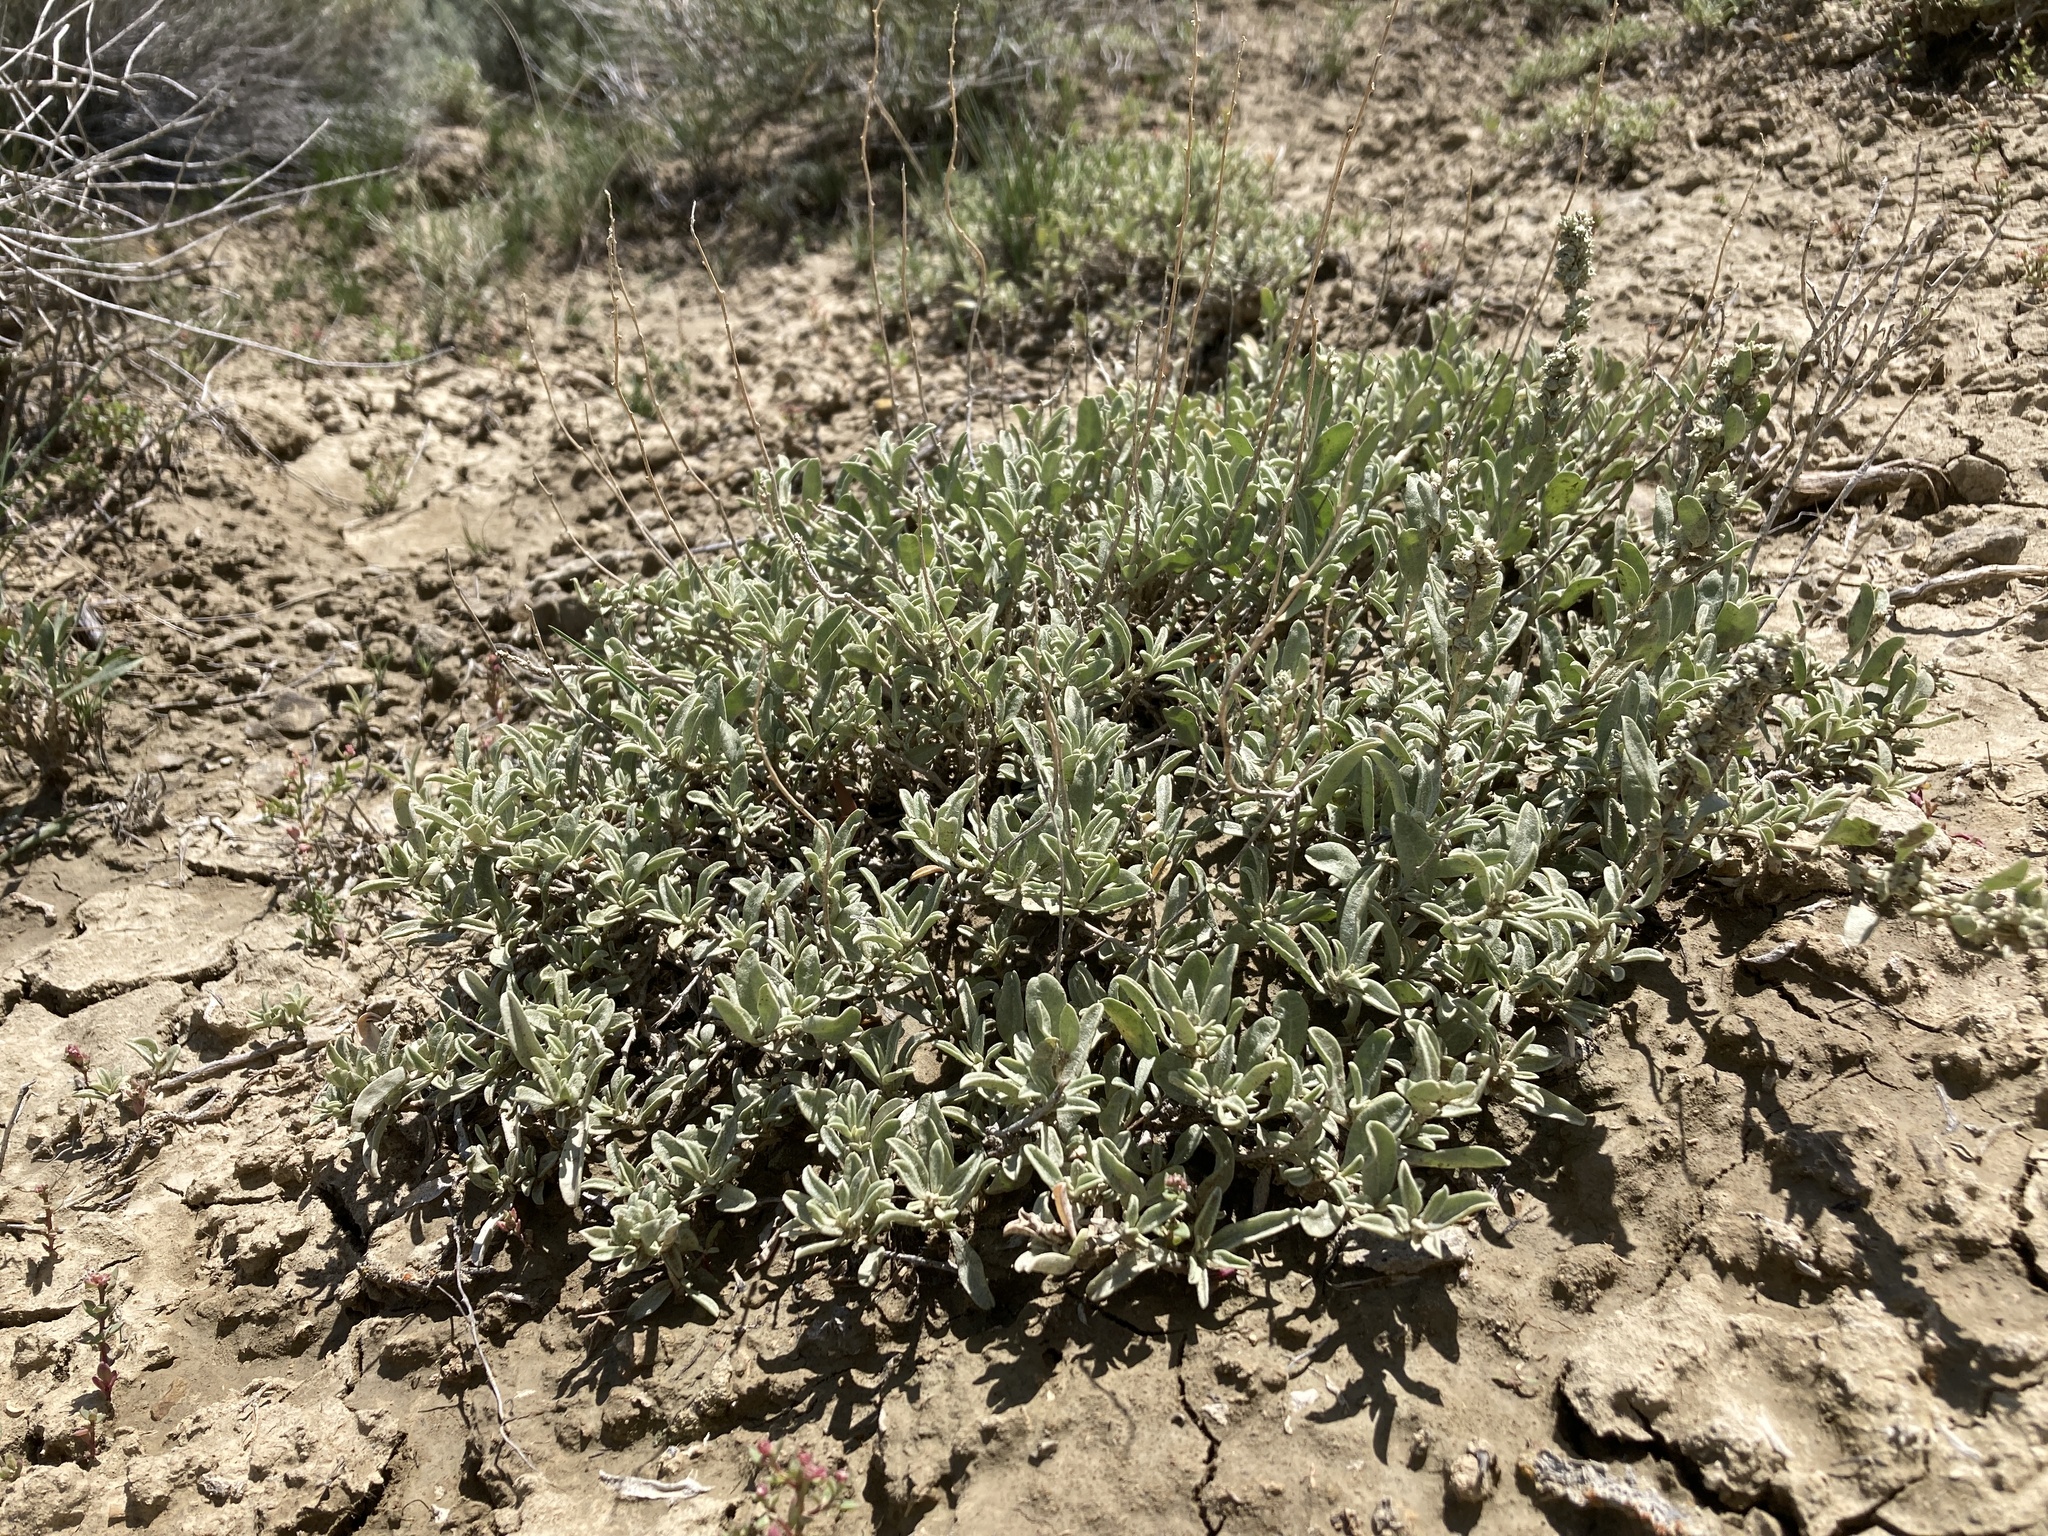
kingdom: Plantae
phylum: Tracheophyta
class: Magnoliopsida
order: Caryophyllales
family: Amaranthaceae
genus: Atriplex
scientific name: Atriplex gardneri
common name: Gardner's orache
